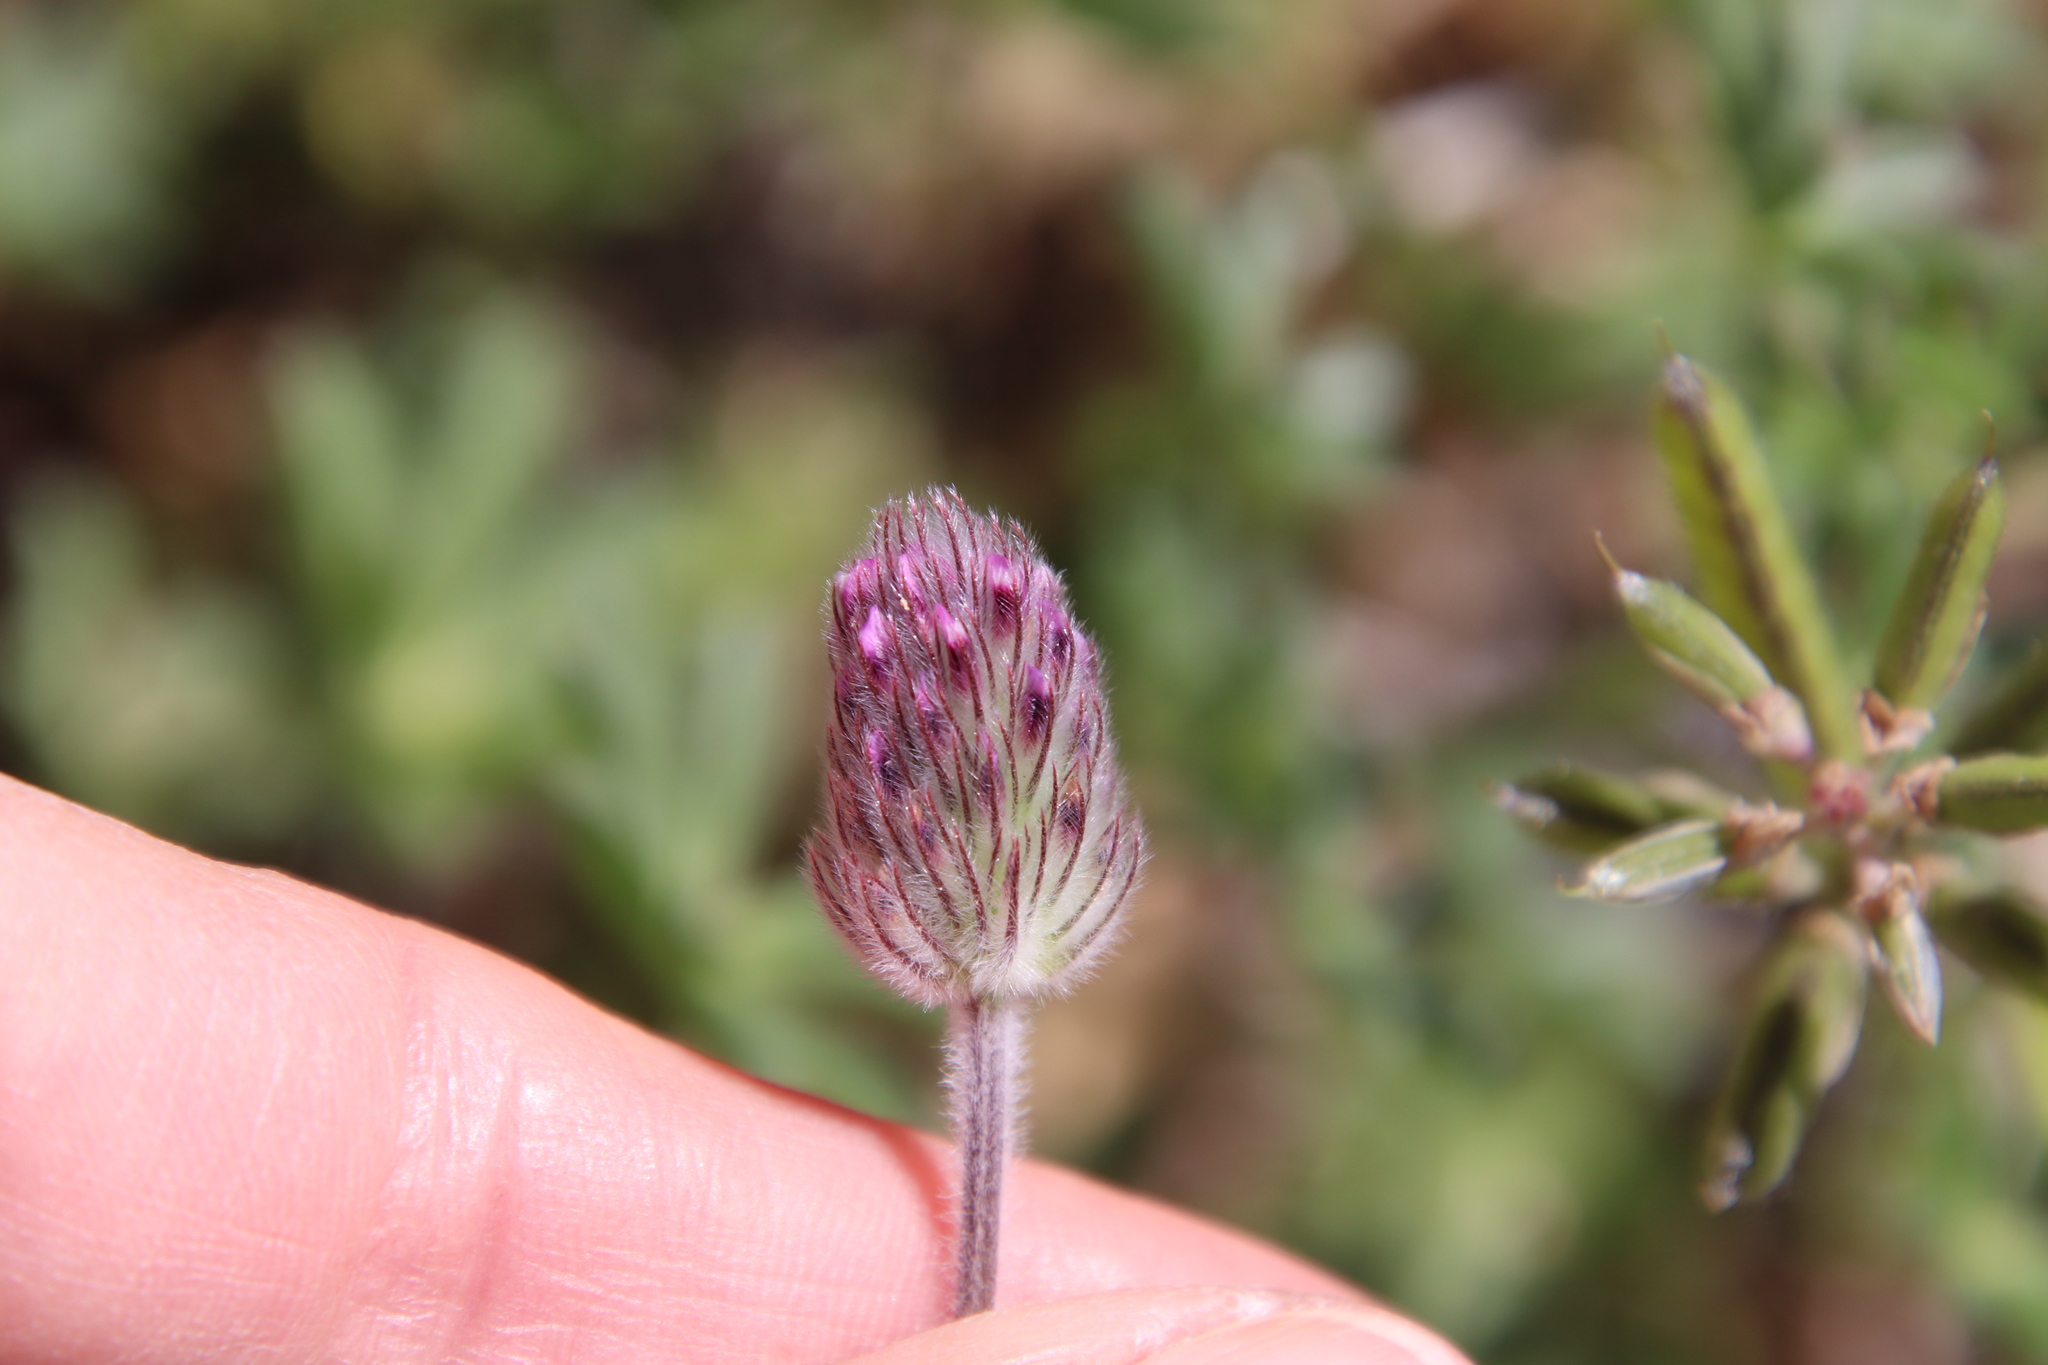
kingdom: Plantae
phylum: Tracheophyta
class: Magnoliopsida
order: Fabales
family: Fabaceae
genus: Trifolium
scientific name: Trifolium albopurpureum
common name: Rancheria clover
